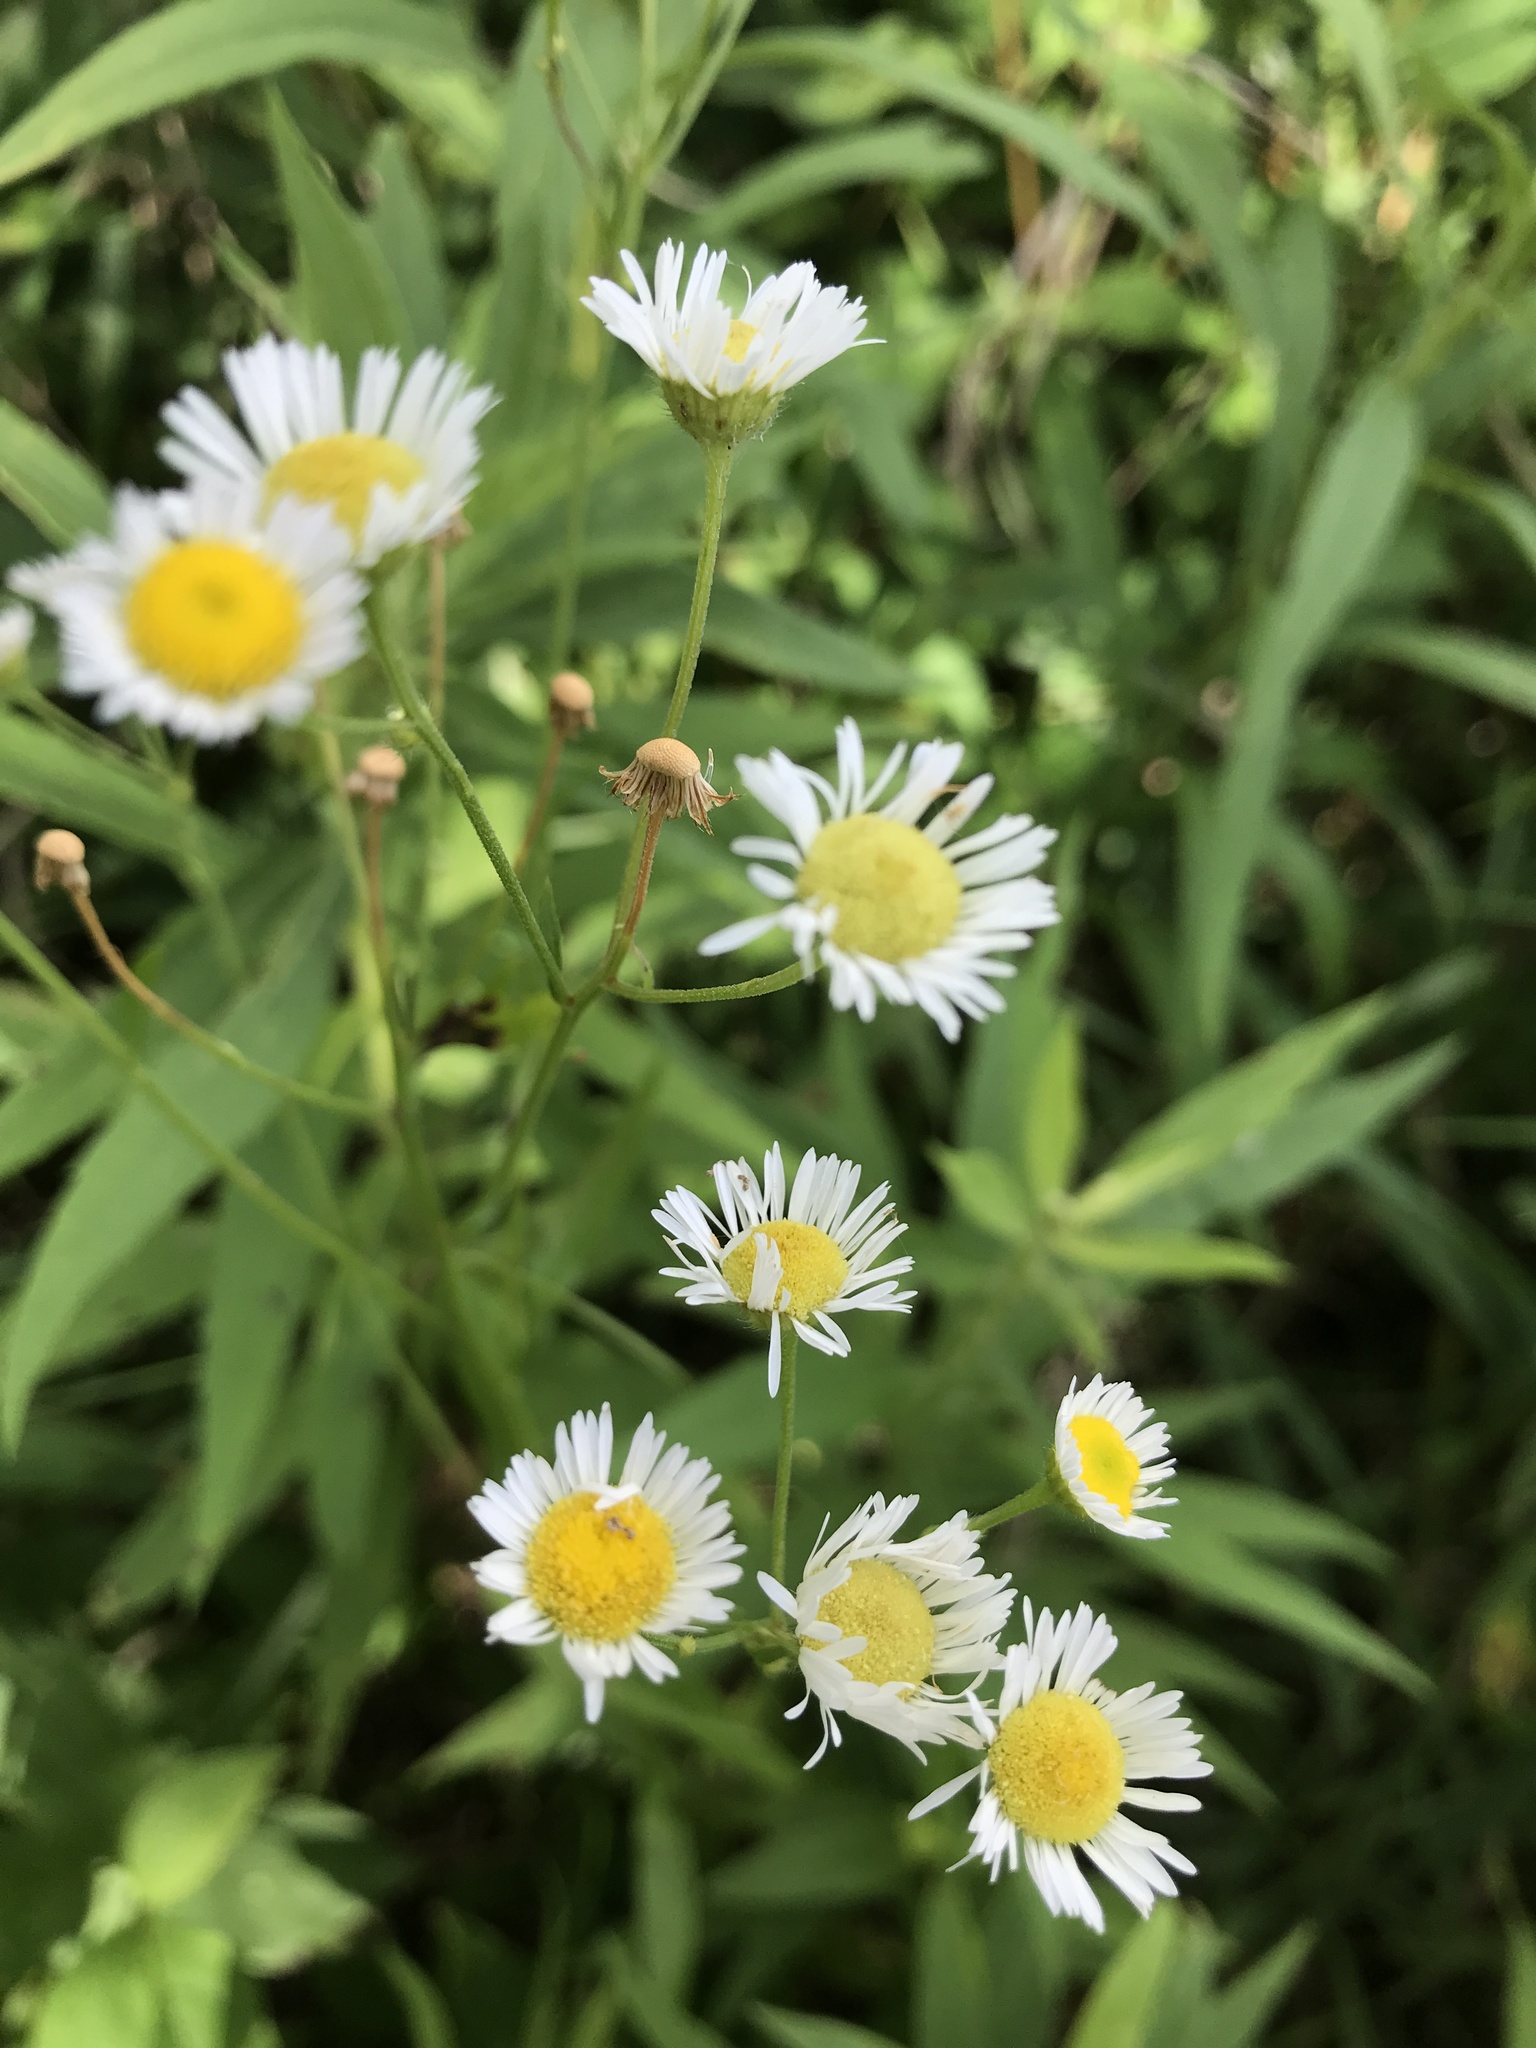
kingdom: Plantae
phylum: Tracheophyta
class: Magnoliopsida
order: Asterales
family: Asteraceae
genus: Erigeron
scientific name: Erigeron strigosus
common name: Common eastern fleabane
